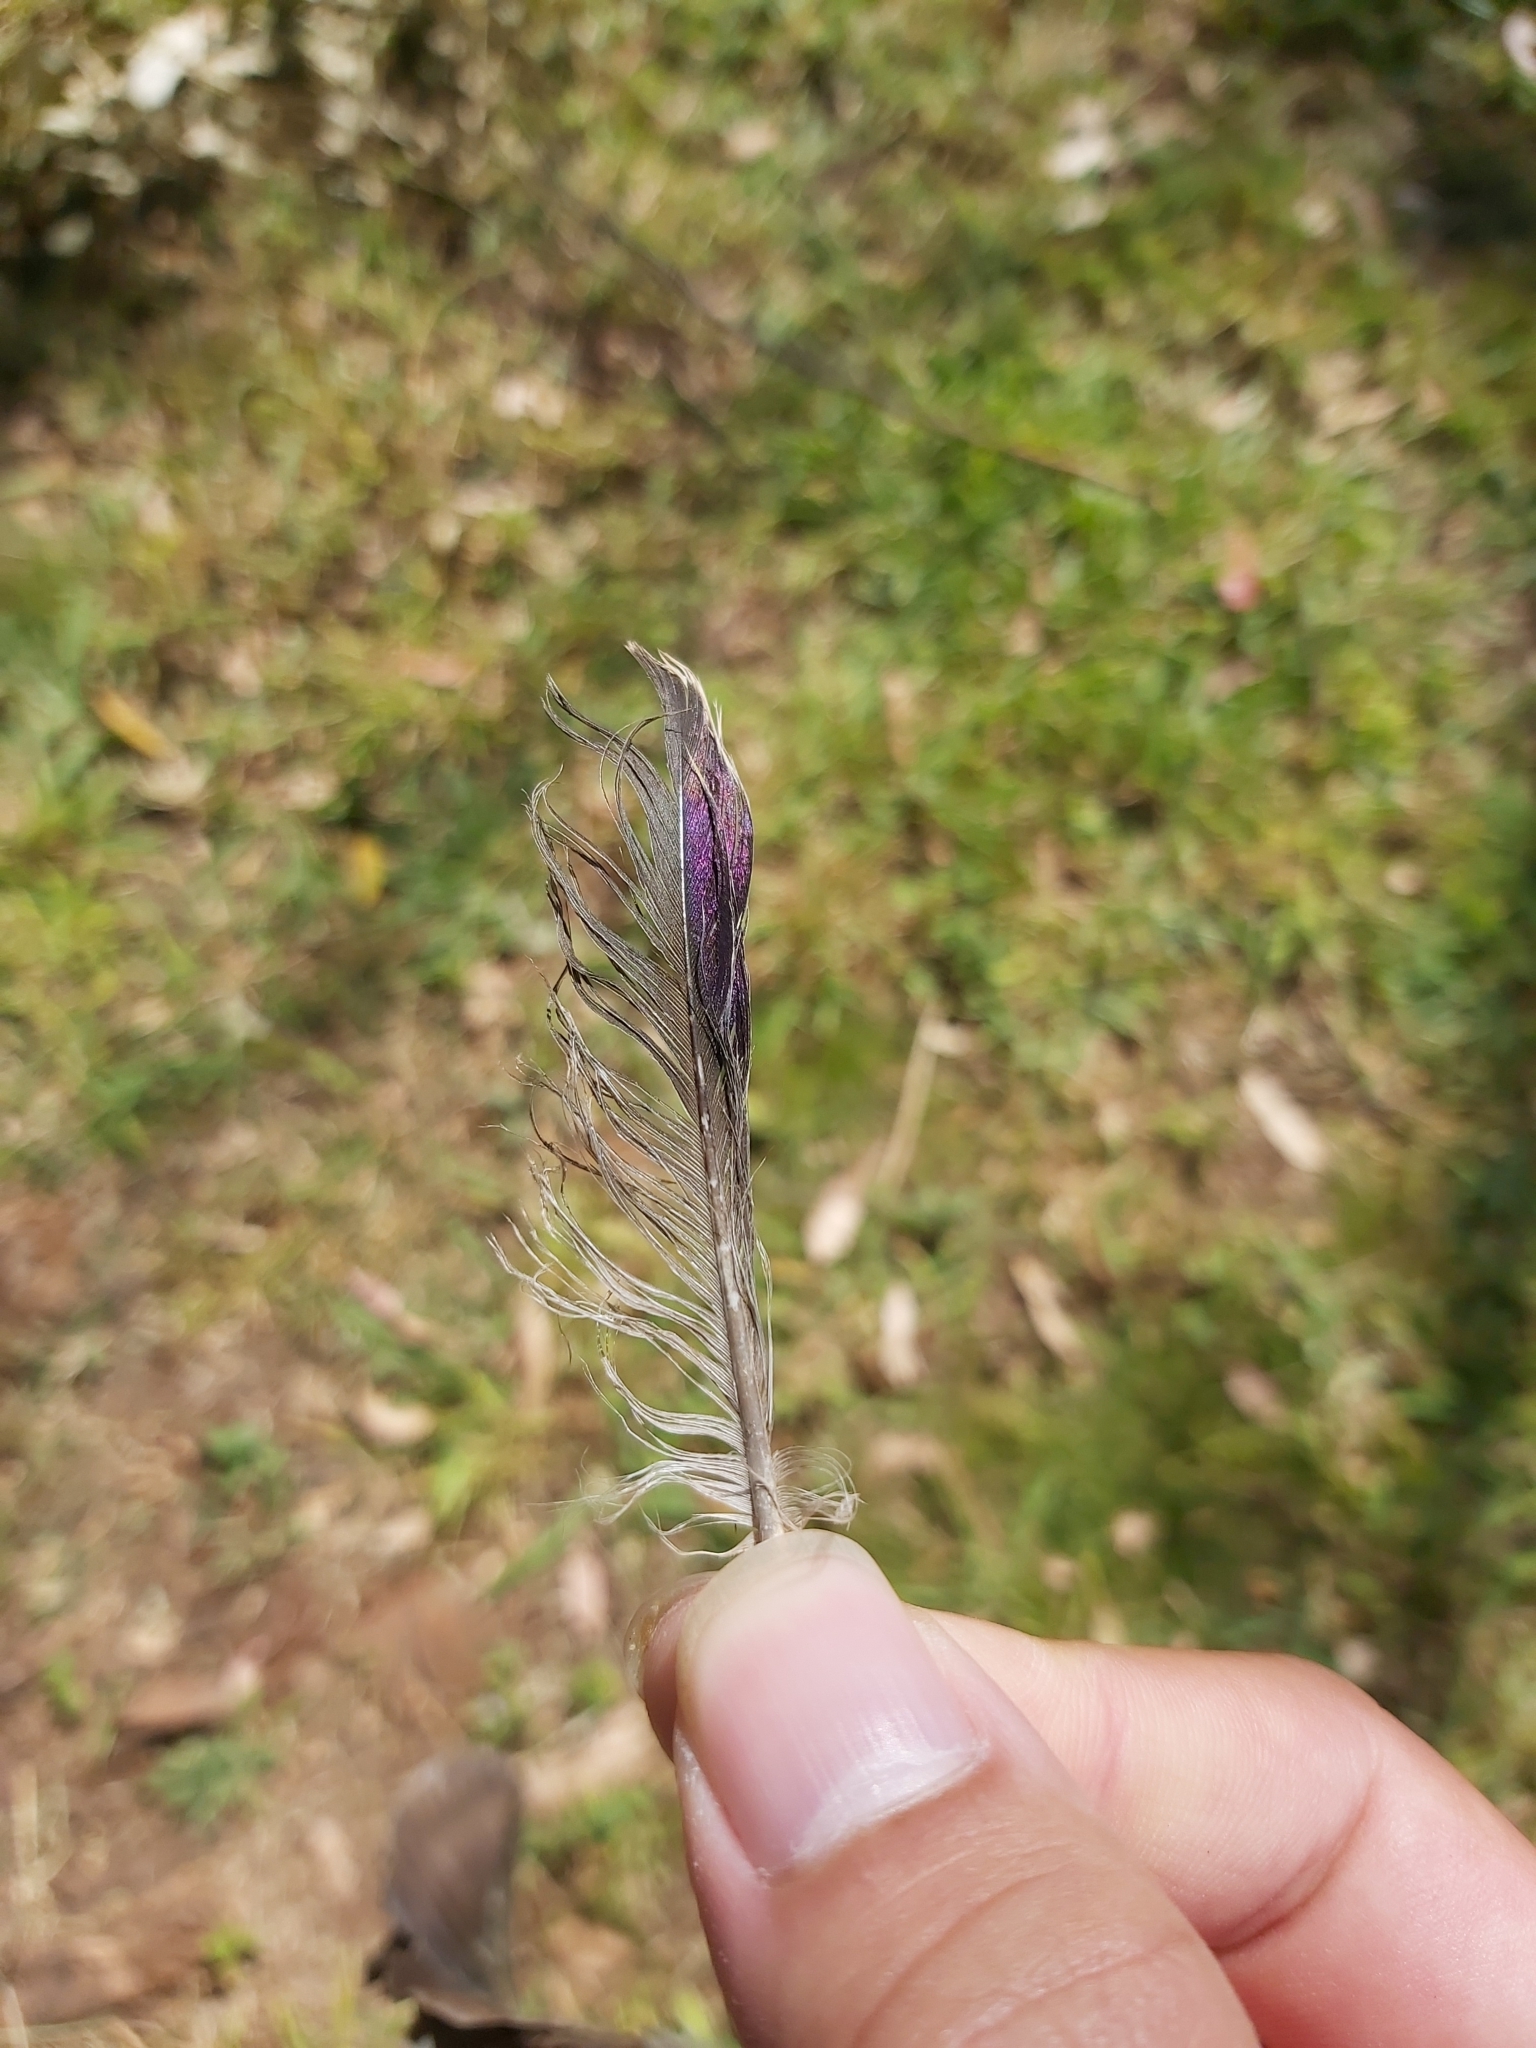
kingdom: Animalia
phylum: Chordata
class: Aves
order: Columbiformes
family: Columbidae
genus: Ocyphaps
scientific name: Ocyphaps lophotes
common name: Crested pigeon
